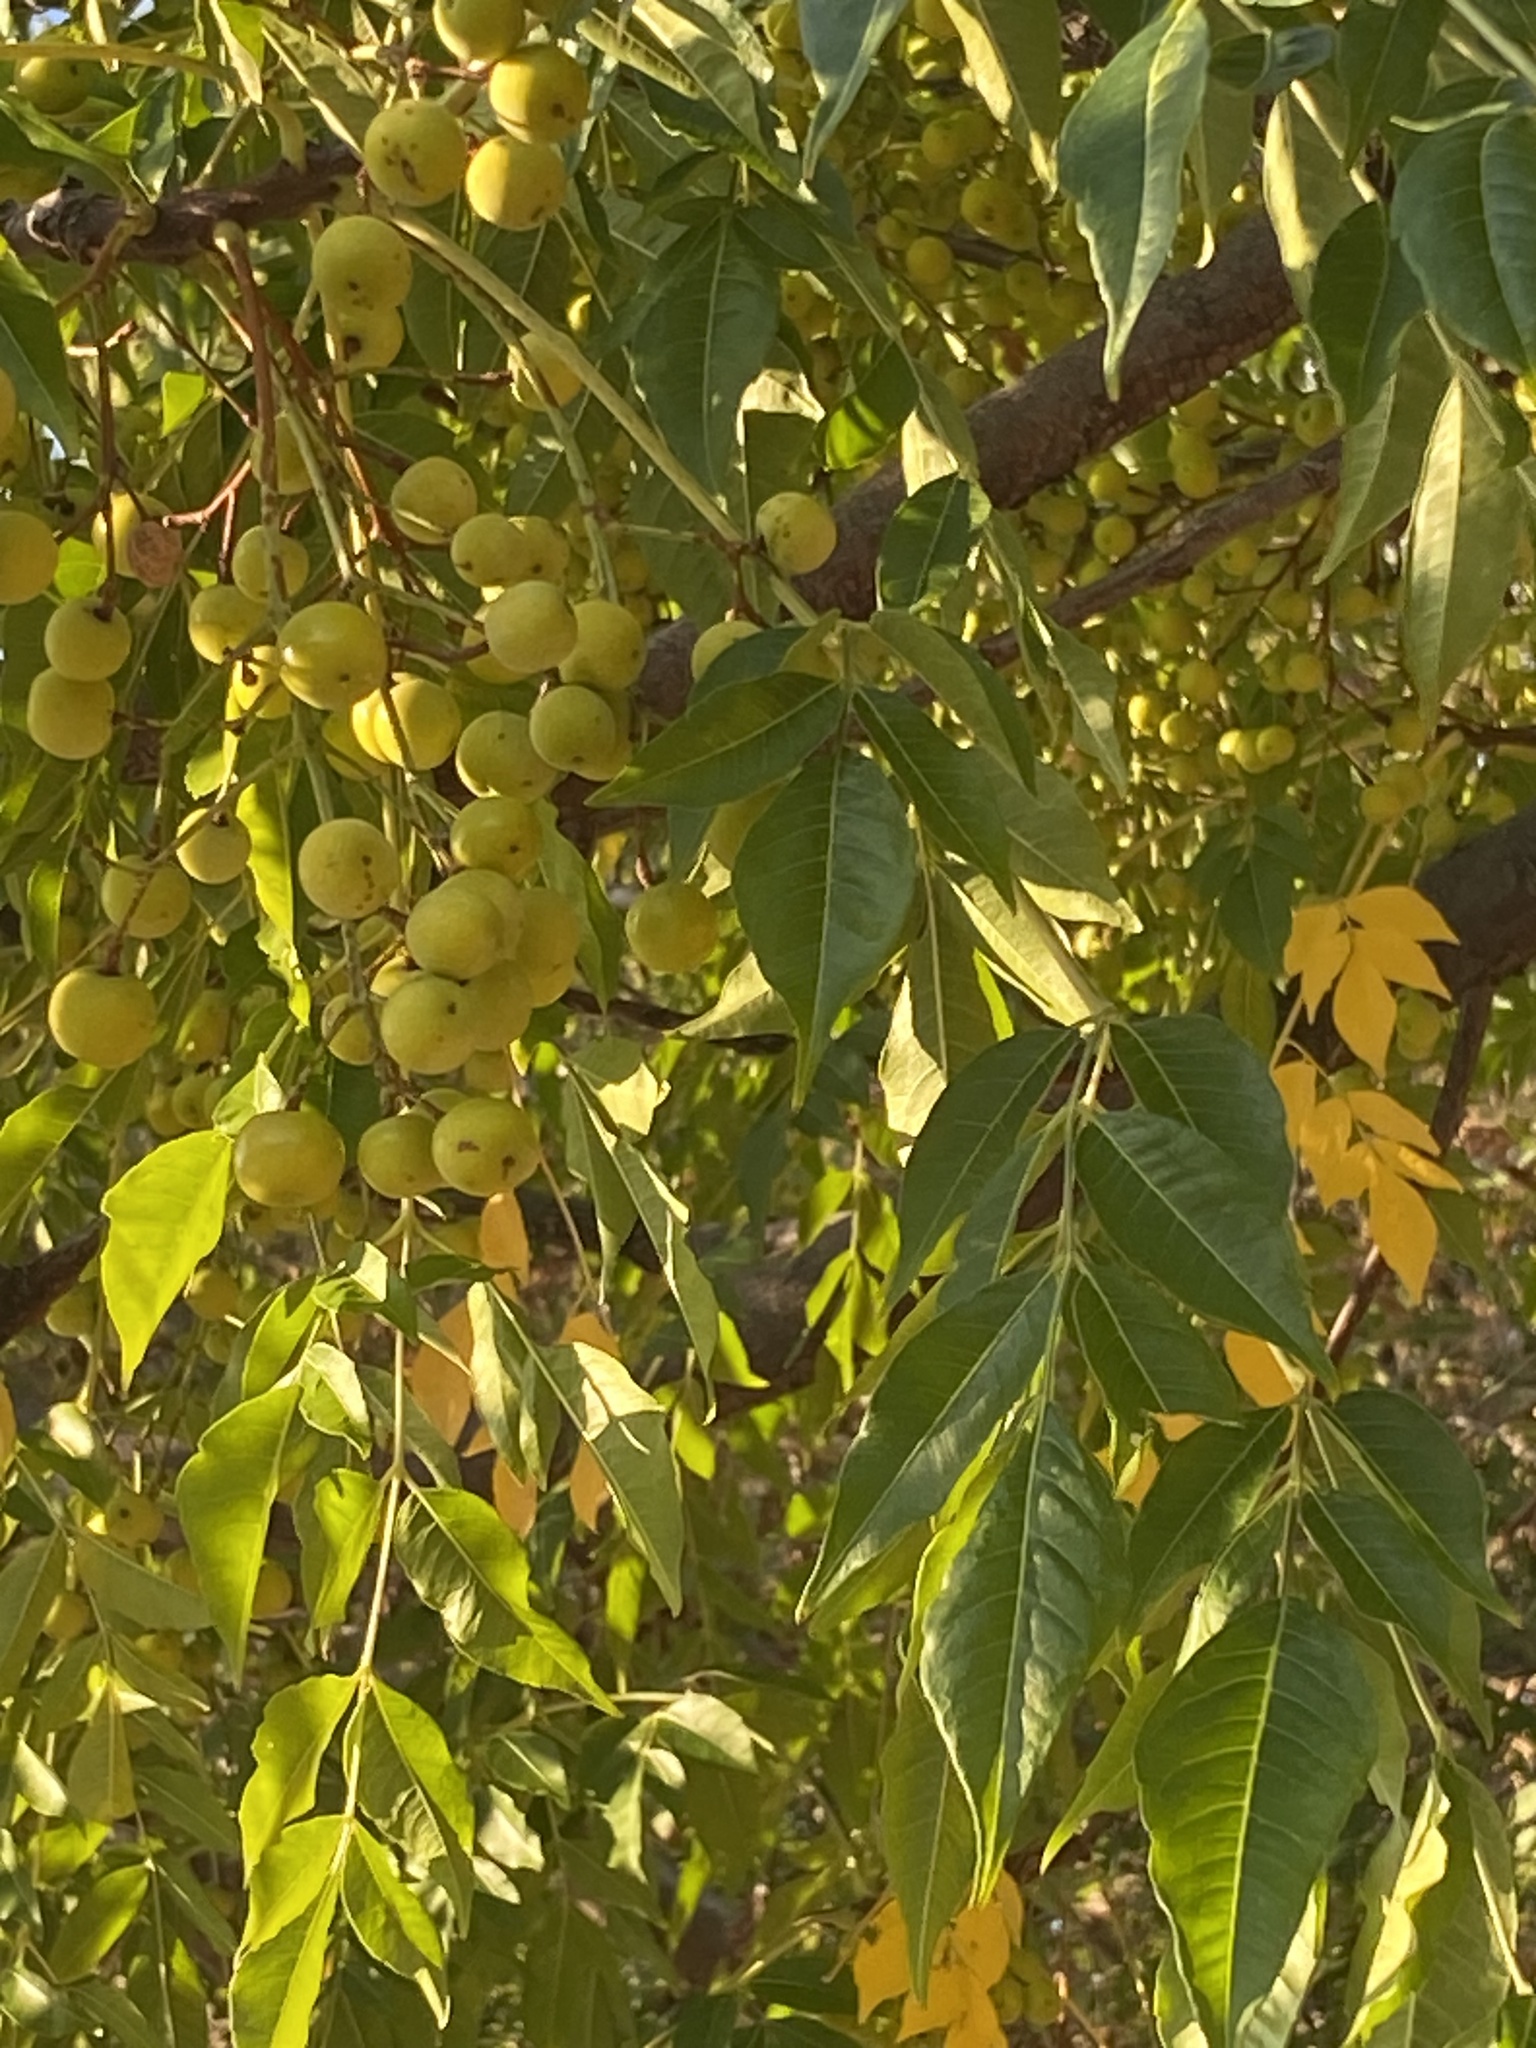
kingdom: Plantae
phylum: Tracheophyta
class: Magnoliopsida
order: Sapindales
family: Meliaceae
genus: Melia
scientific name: Melia azedarach
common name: Chinaberrytree
